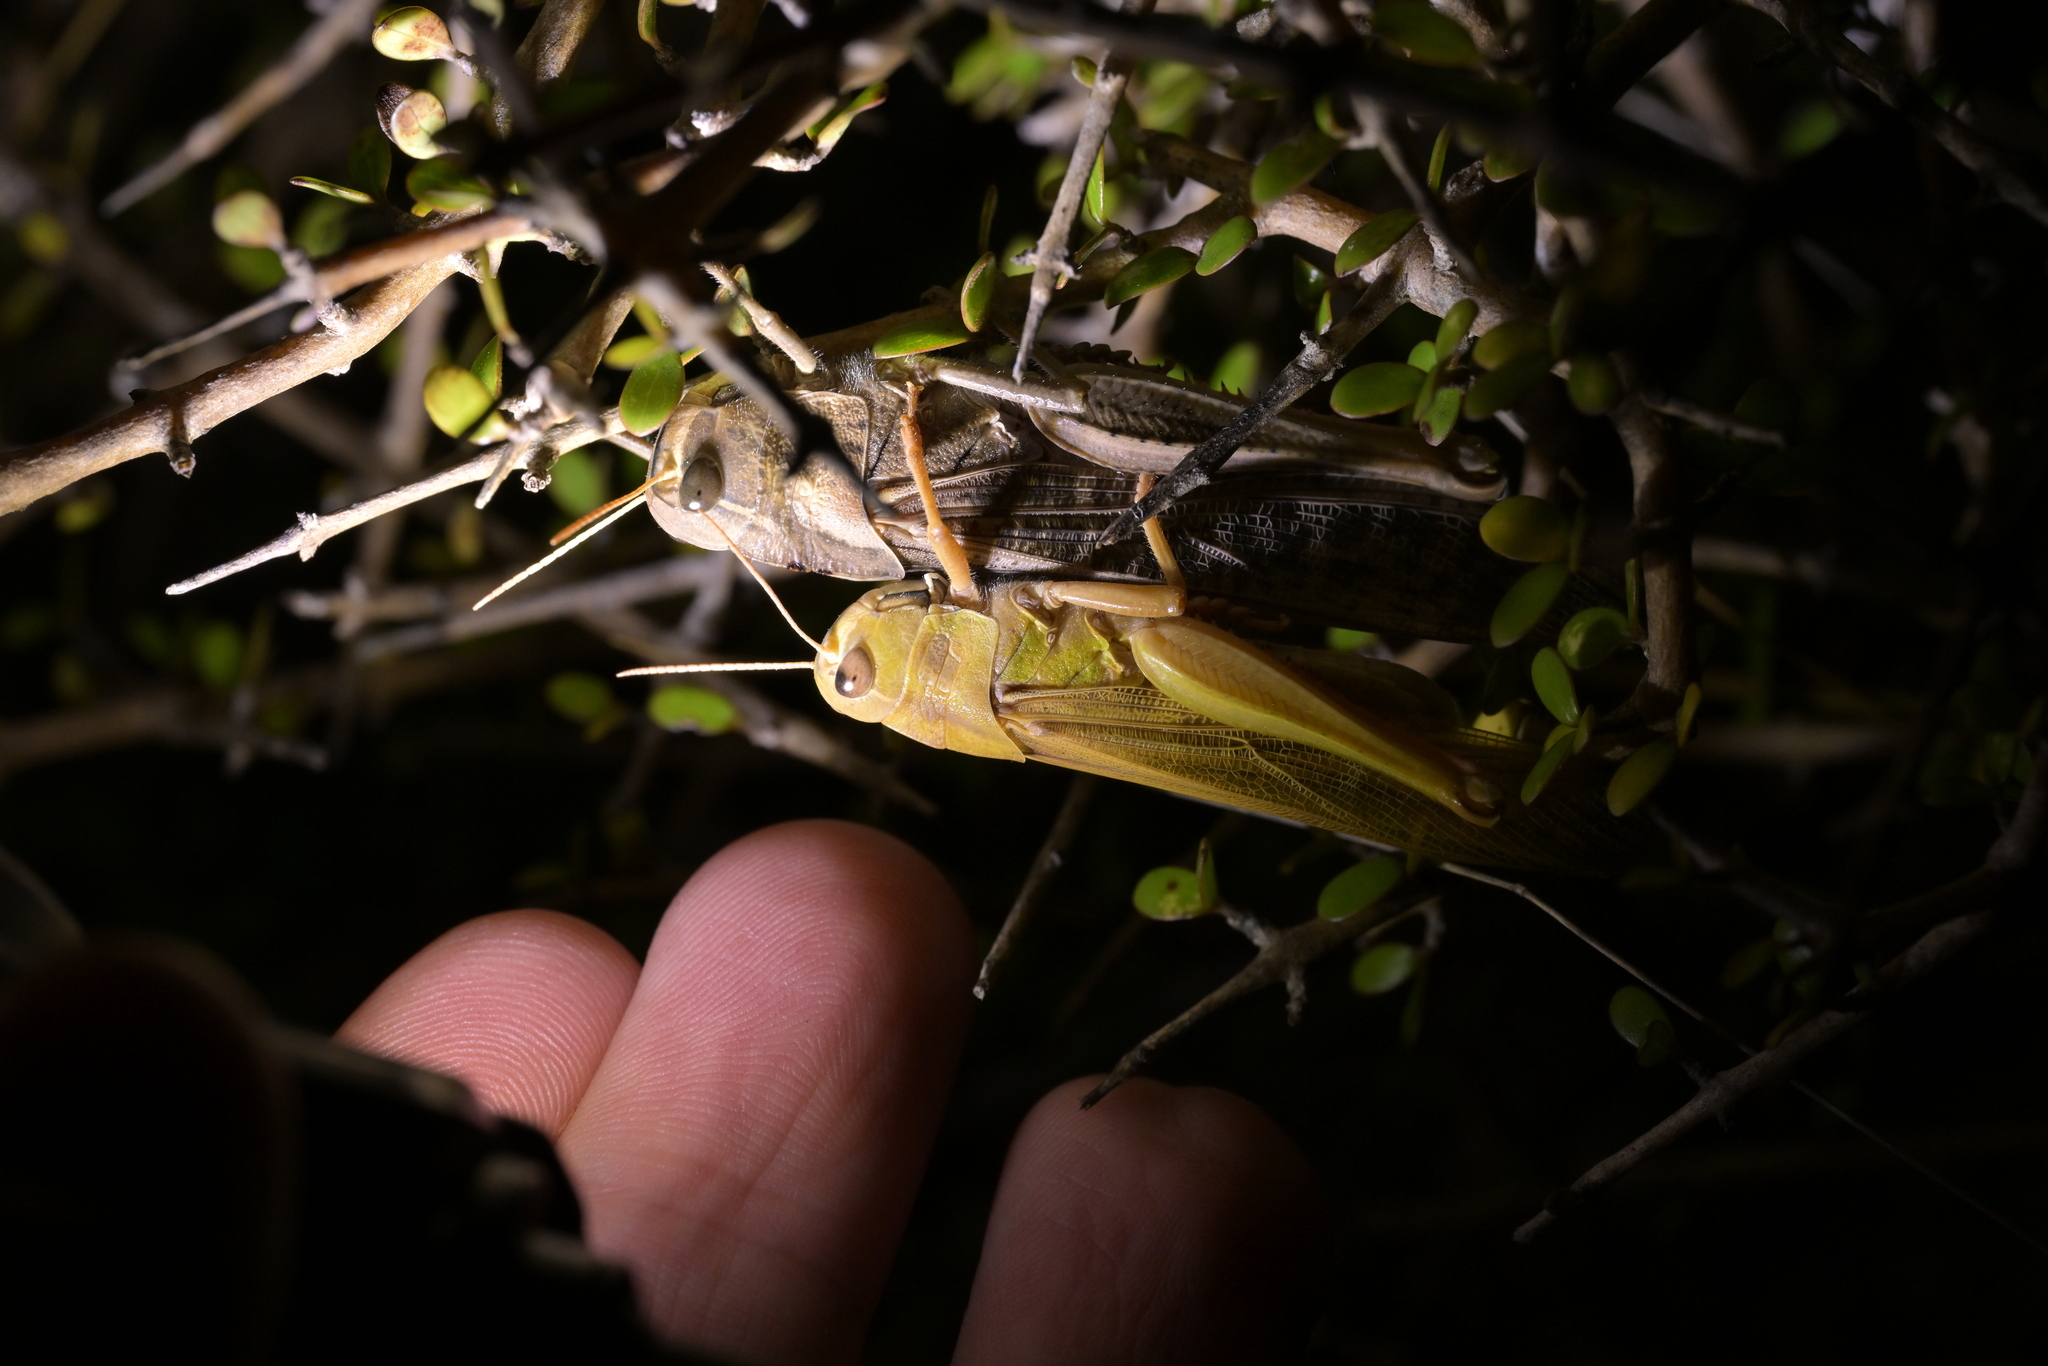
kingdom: Animalia
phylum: Arthropoda
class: Insecta
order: Orthoptera
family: Acrididae
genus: Locusta
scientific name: Locusta migratoria
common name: Migratory locust
